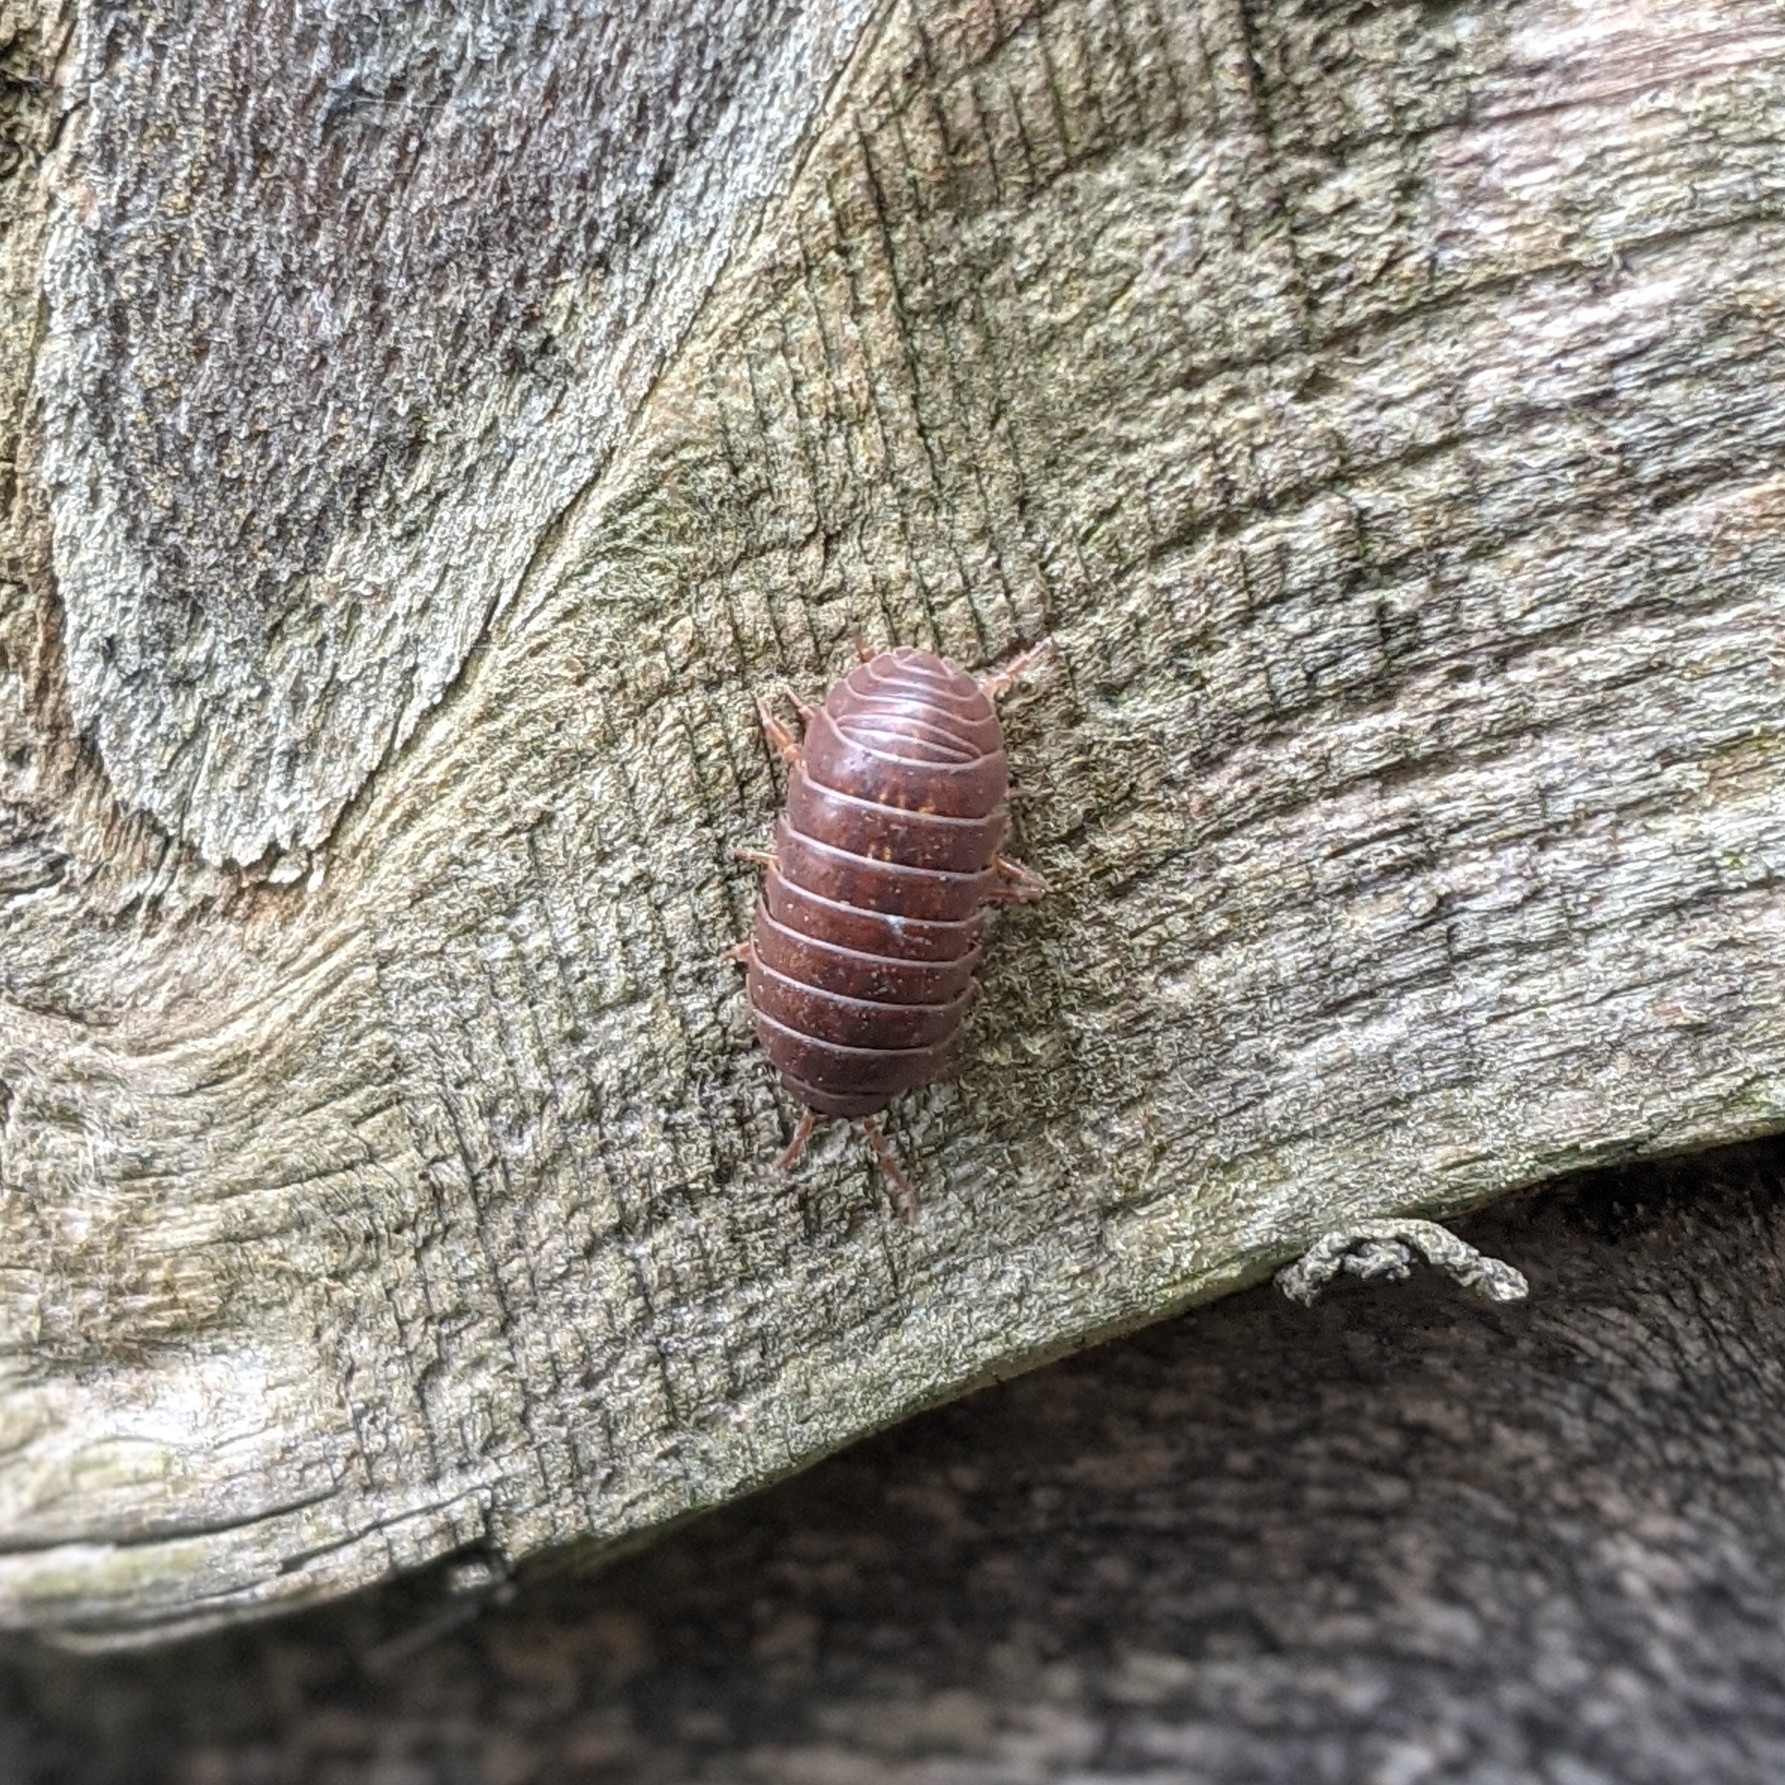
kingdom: Animalia
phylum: Arthropoda
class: Malacostraca
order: Isopoda
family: Armadillidiidae
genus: Armadillidium
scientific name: Armadillidium vulgare
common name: Common pill woodlouse
